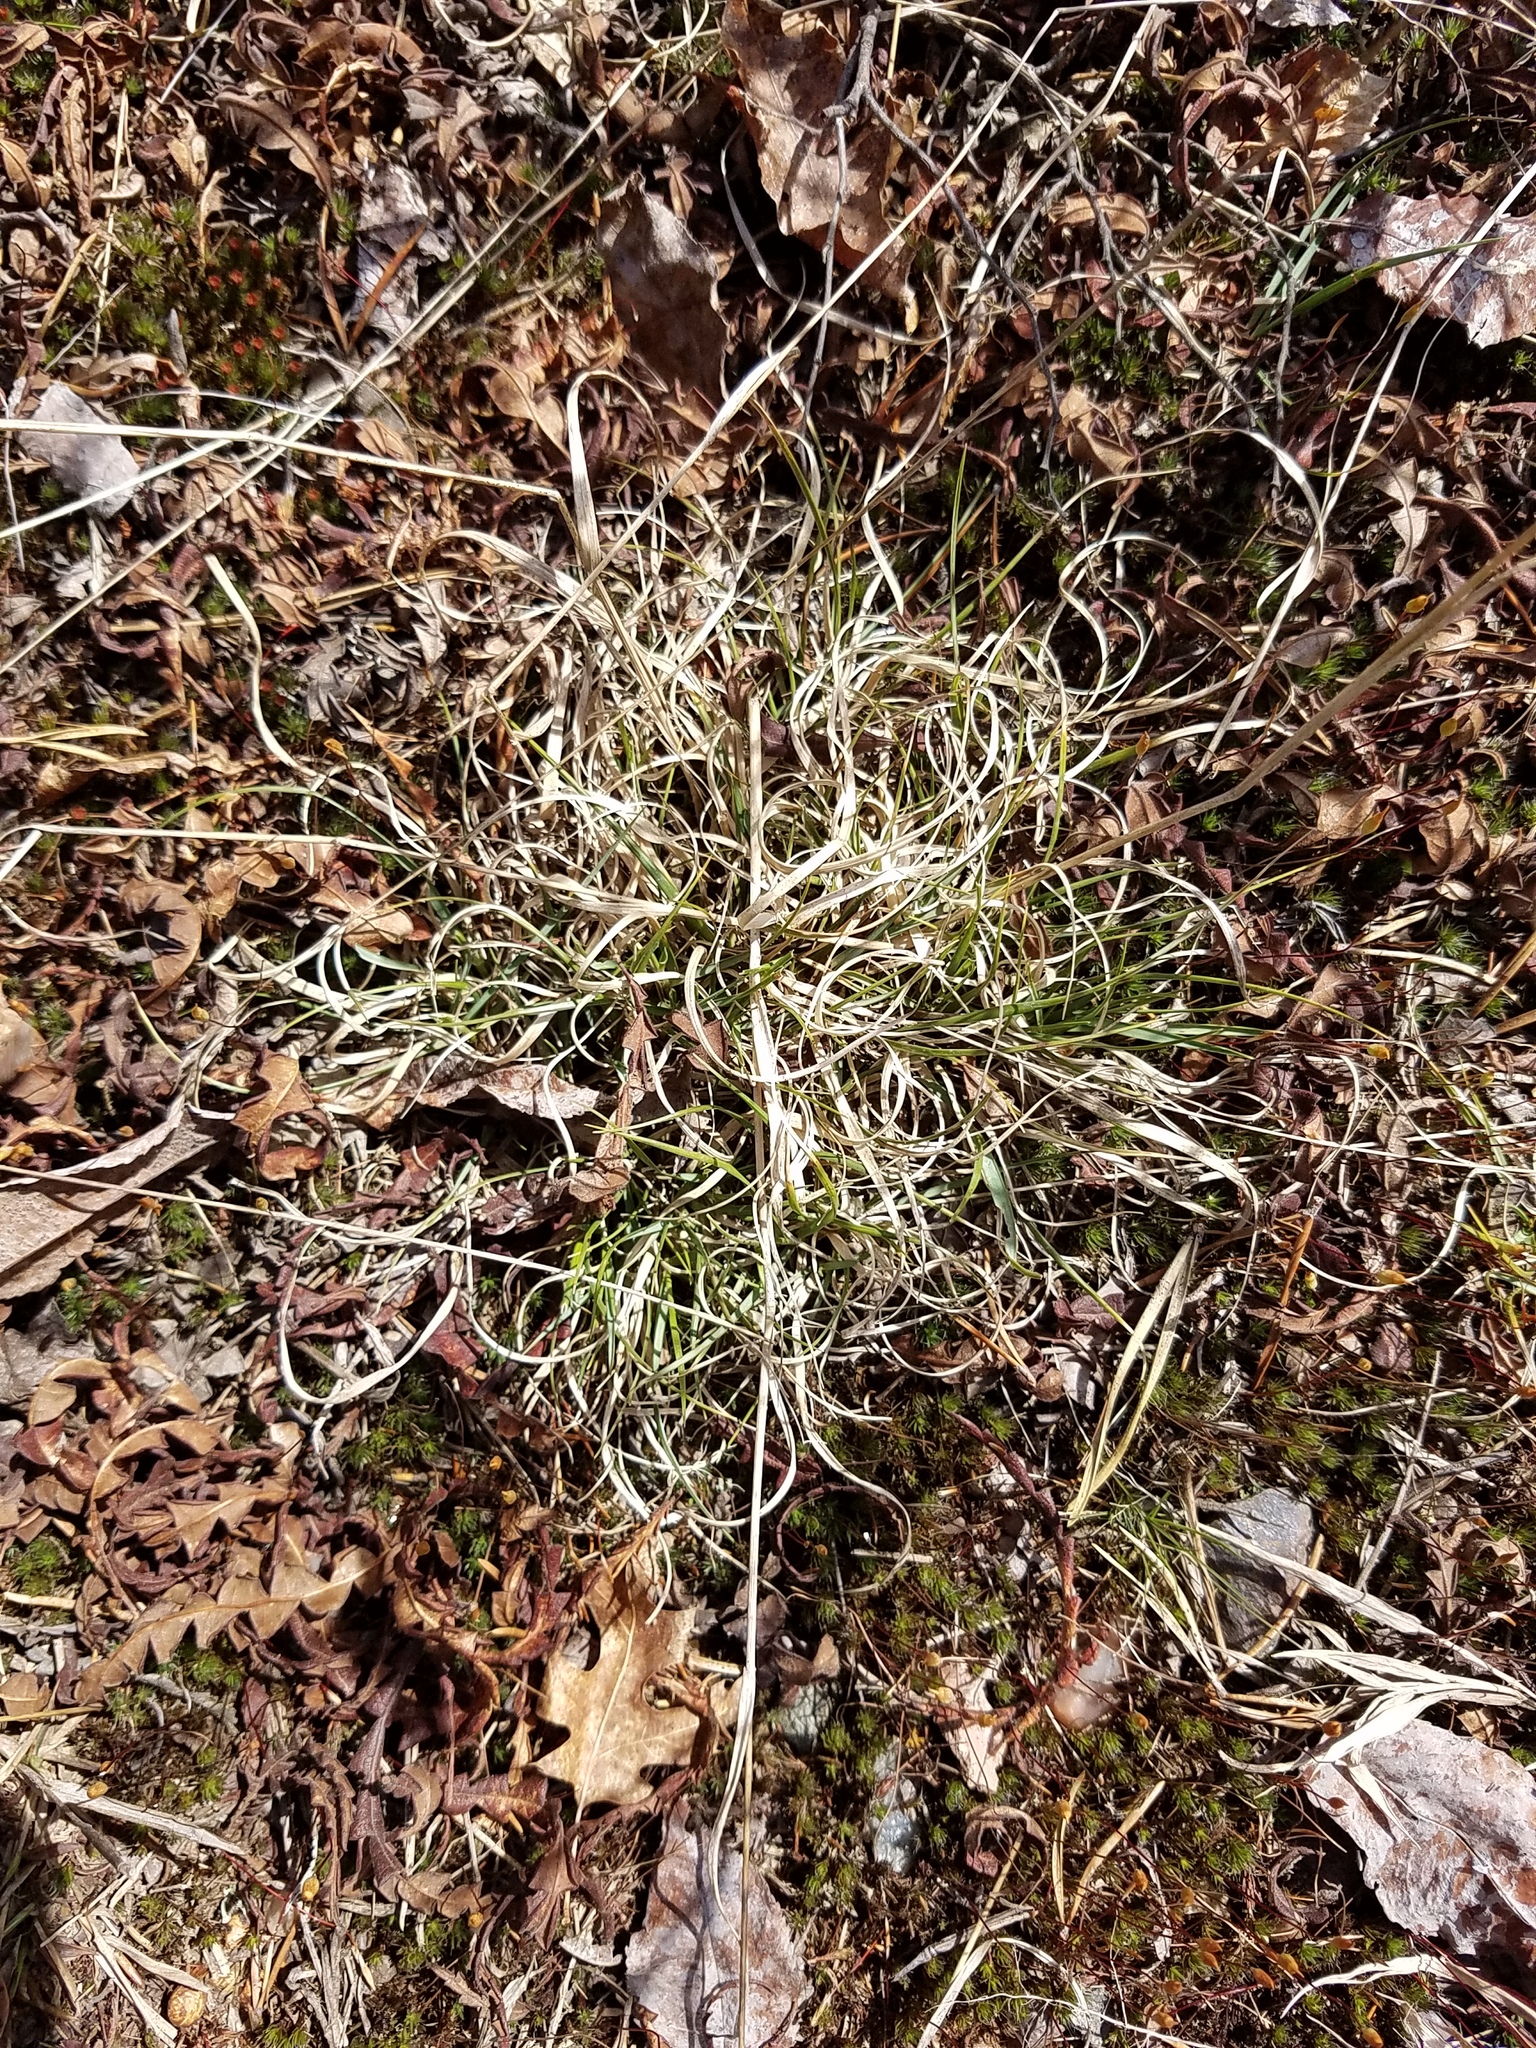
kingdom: Plantae
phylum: Tracheophyta
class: Liliopsida
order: Poales
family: Poaceae
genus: Danthonia
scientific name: Danthonia spicata
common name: Common wild oatgrass
